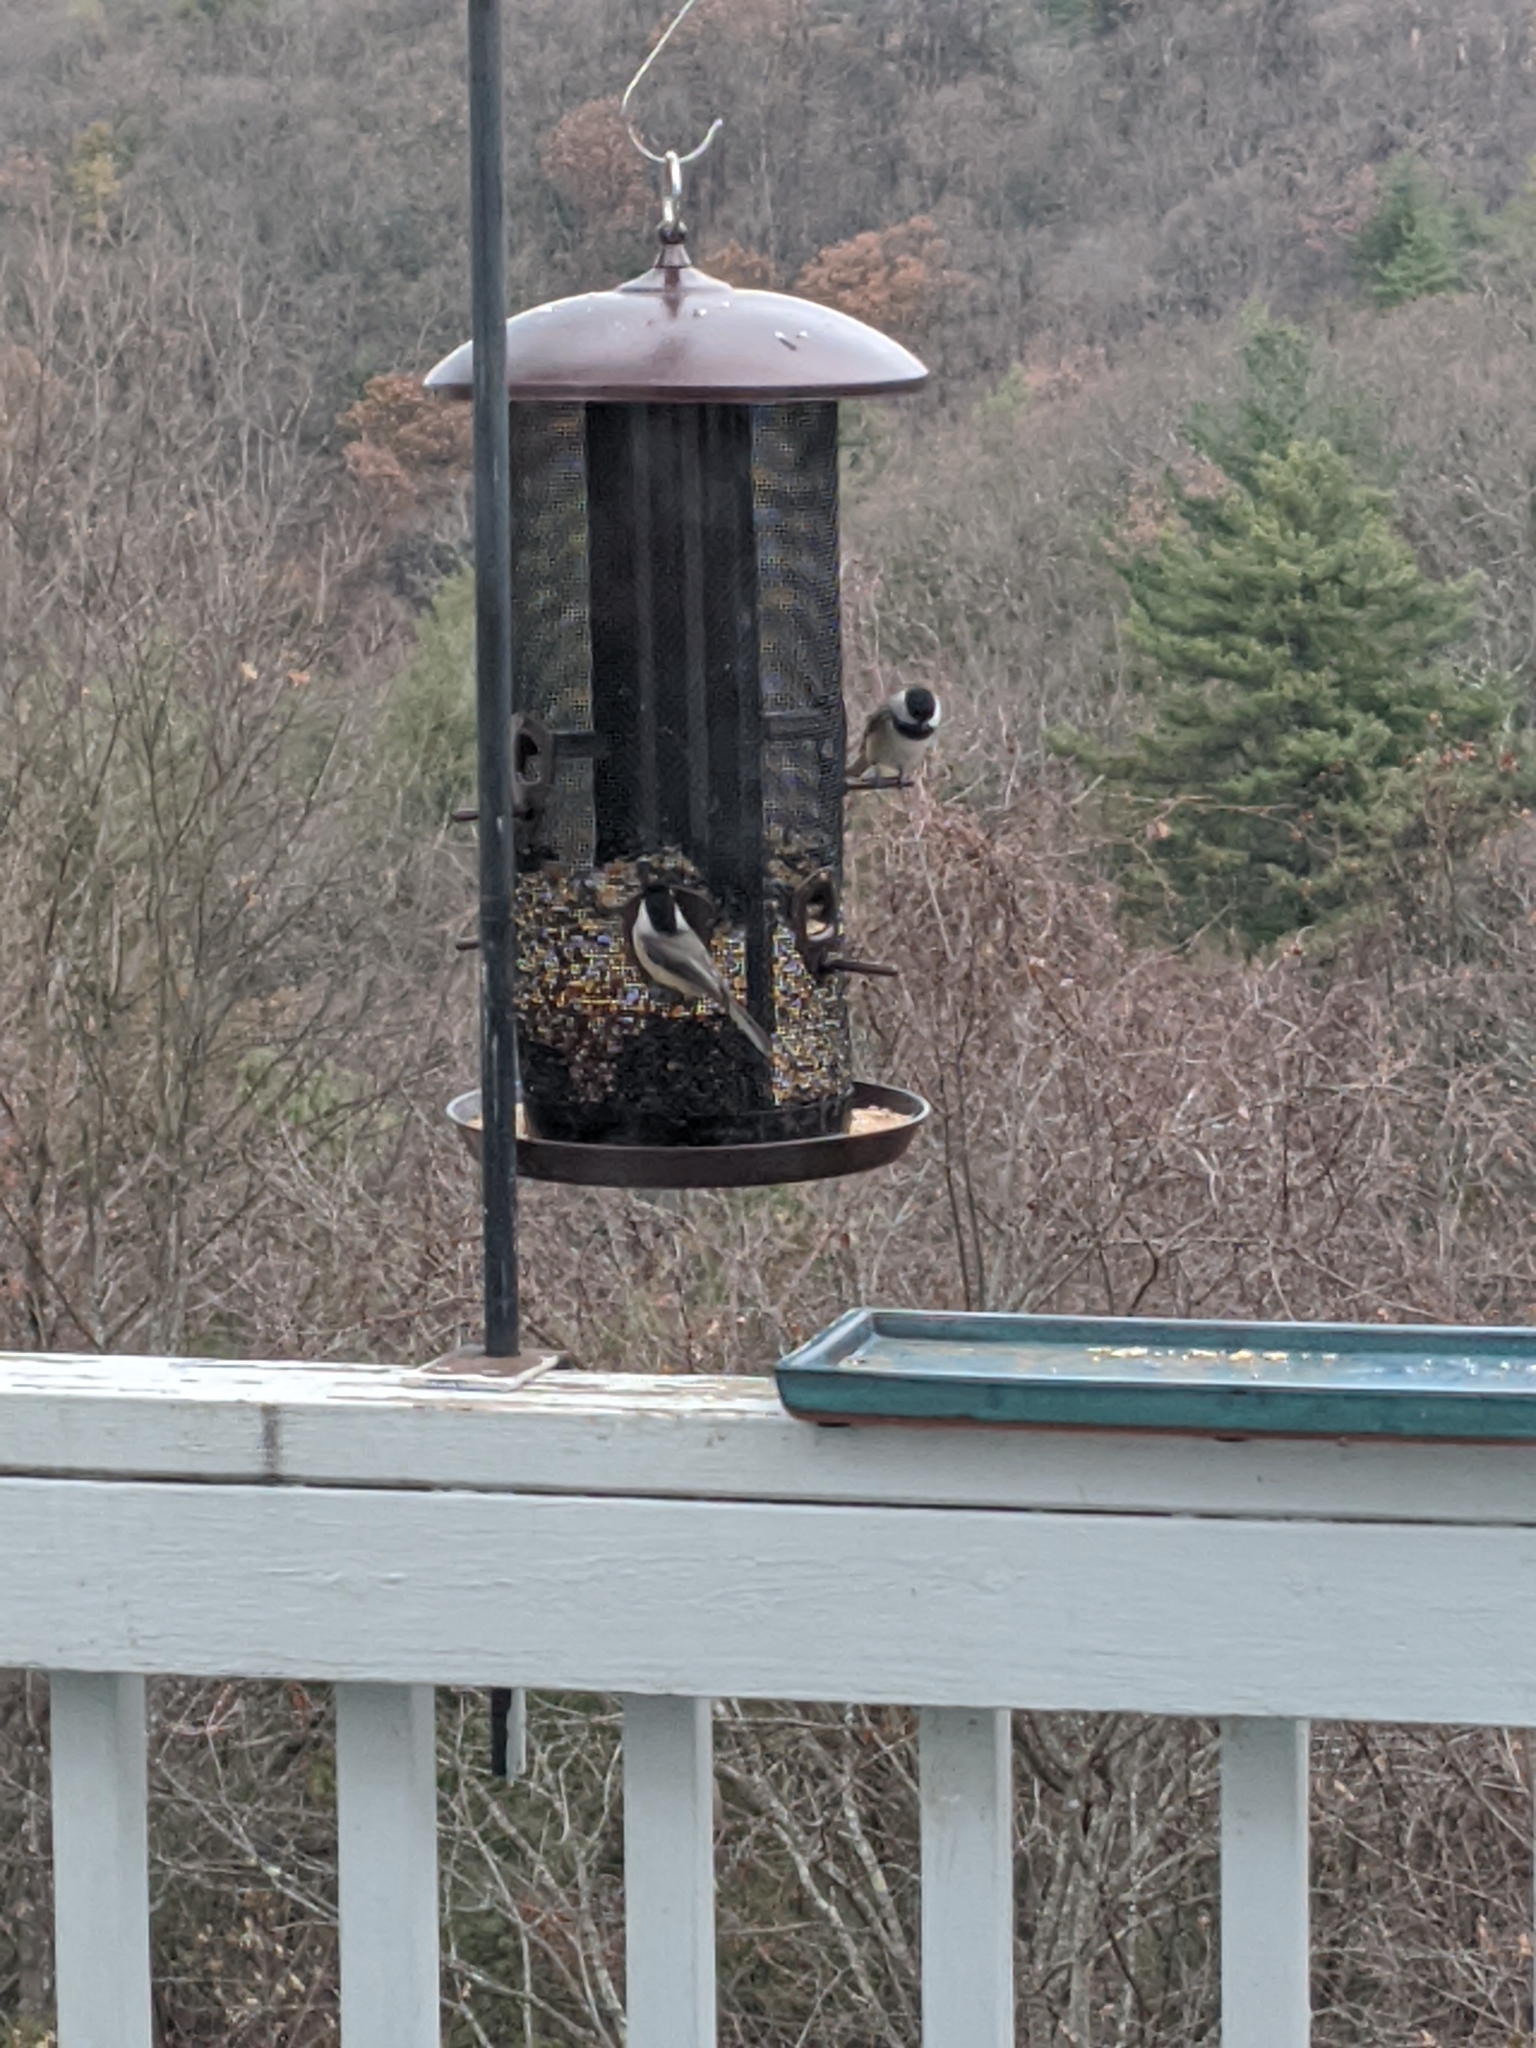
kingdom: Animalia
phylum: Chordata
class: Aves
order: Passeriformes
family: Paridae
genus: Poecile
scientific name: Poecile carolinensis
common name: Carolina chickadee
